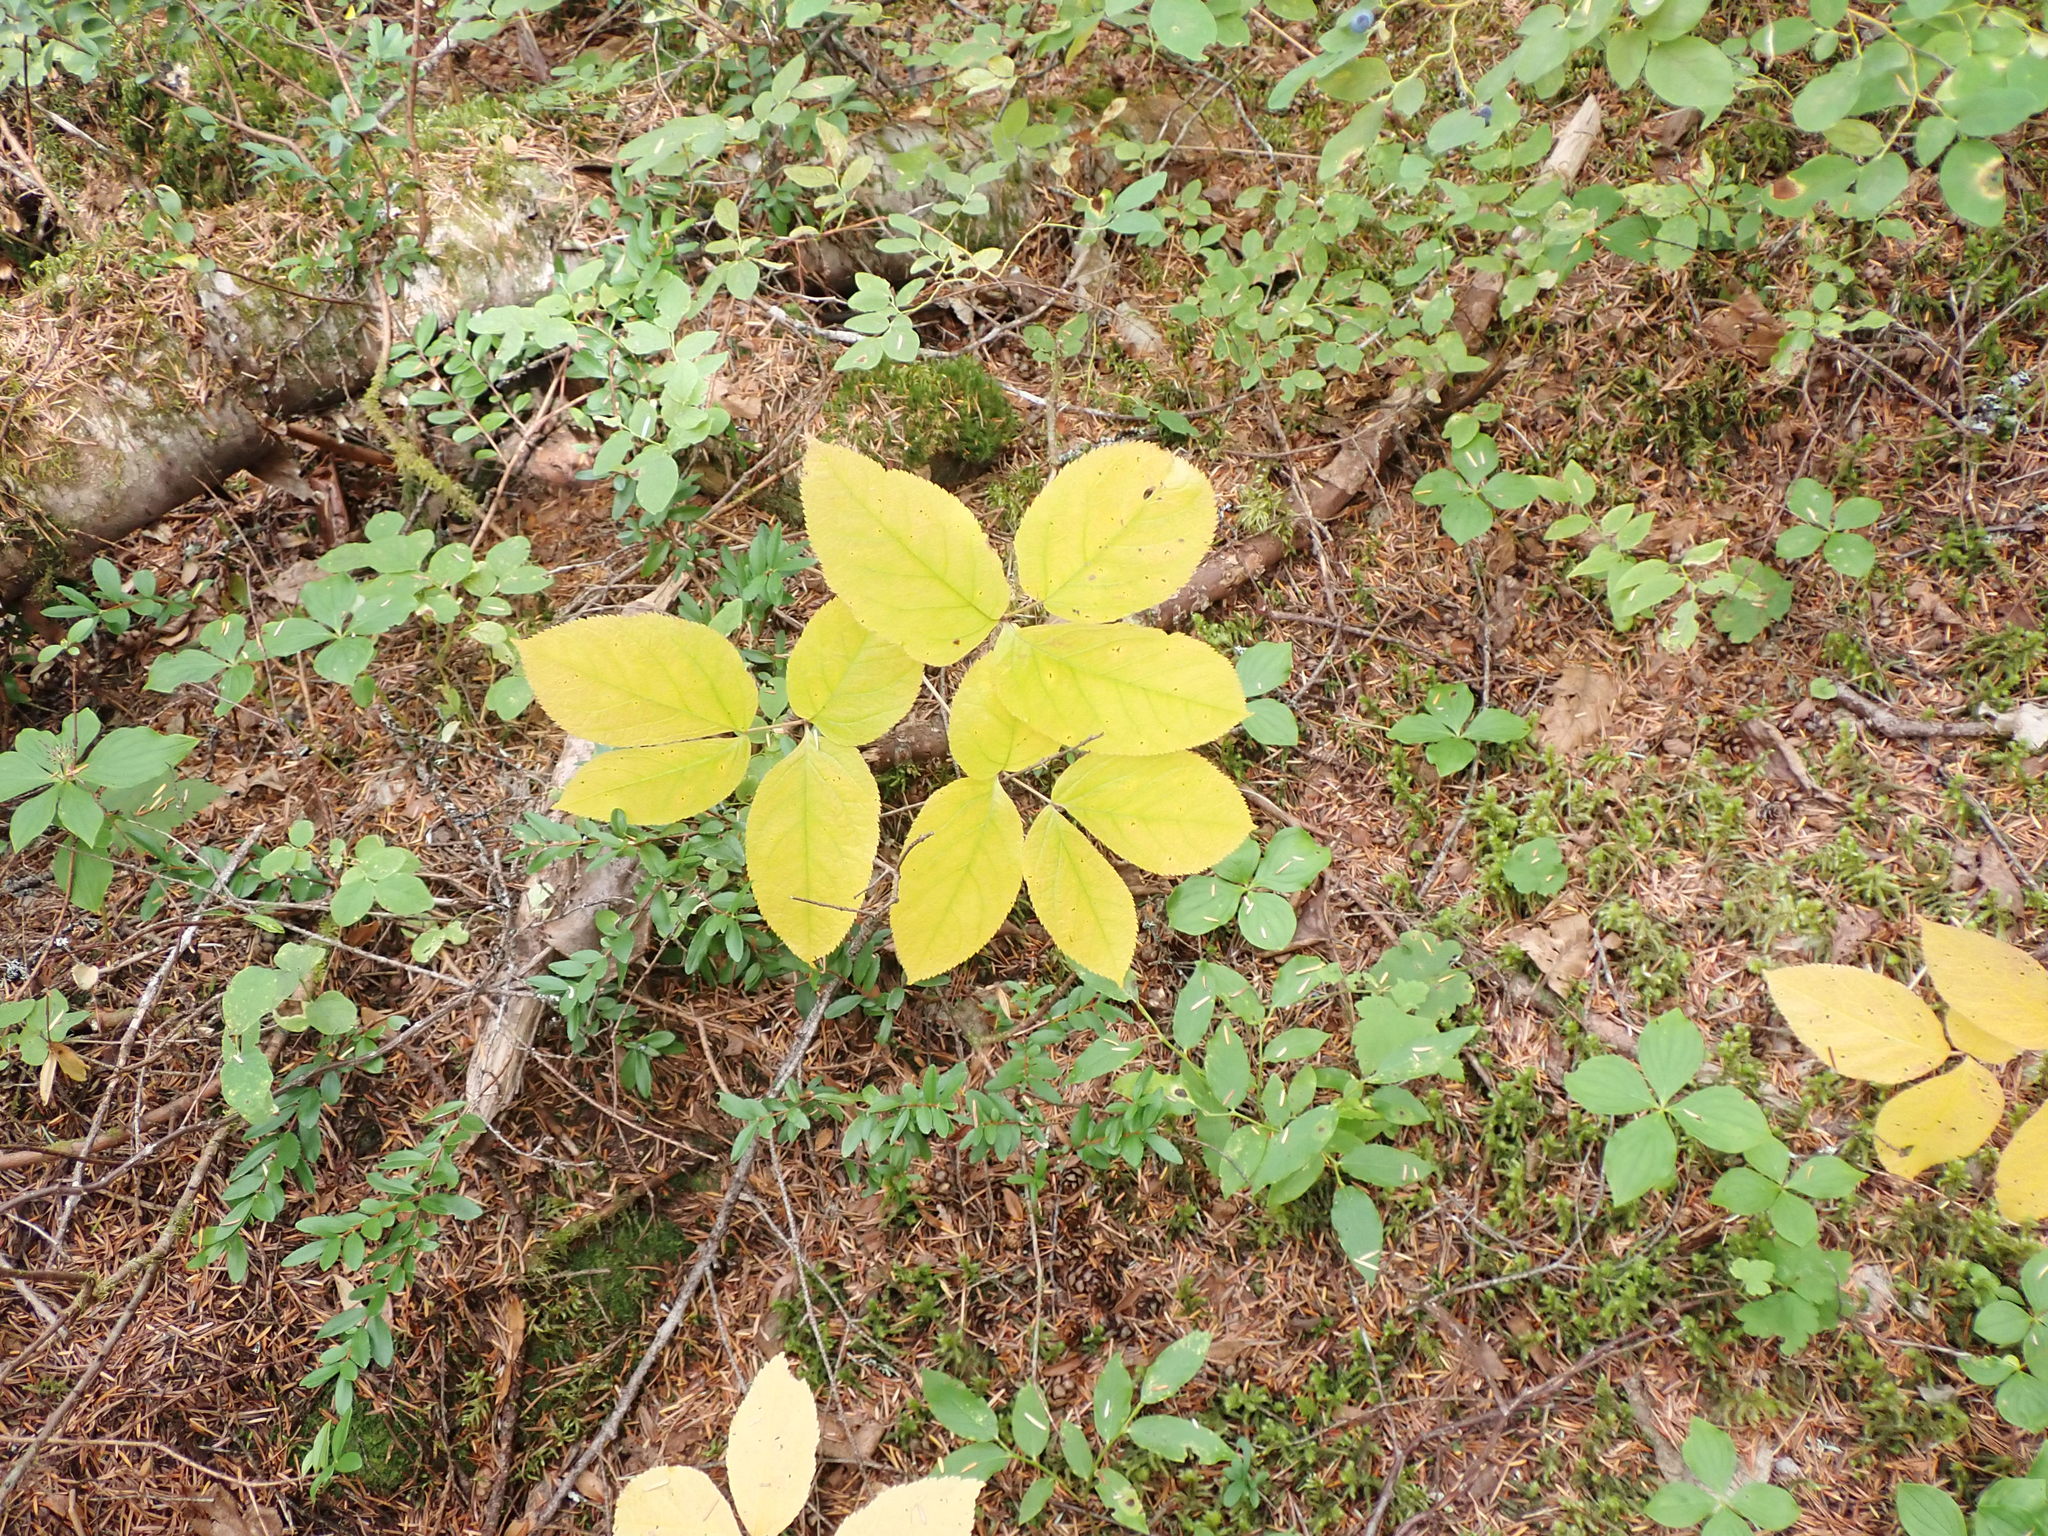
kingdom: Plantae
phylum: Tracheophyta
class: Magnoliopsida
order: Apiales
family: Araliaceae
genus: Aralia
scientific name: Aralia nudicaulis
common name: Wild sarsaparilla
